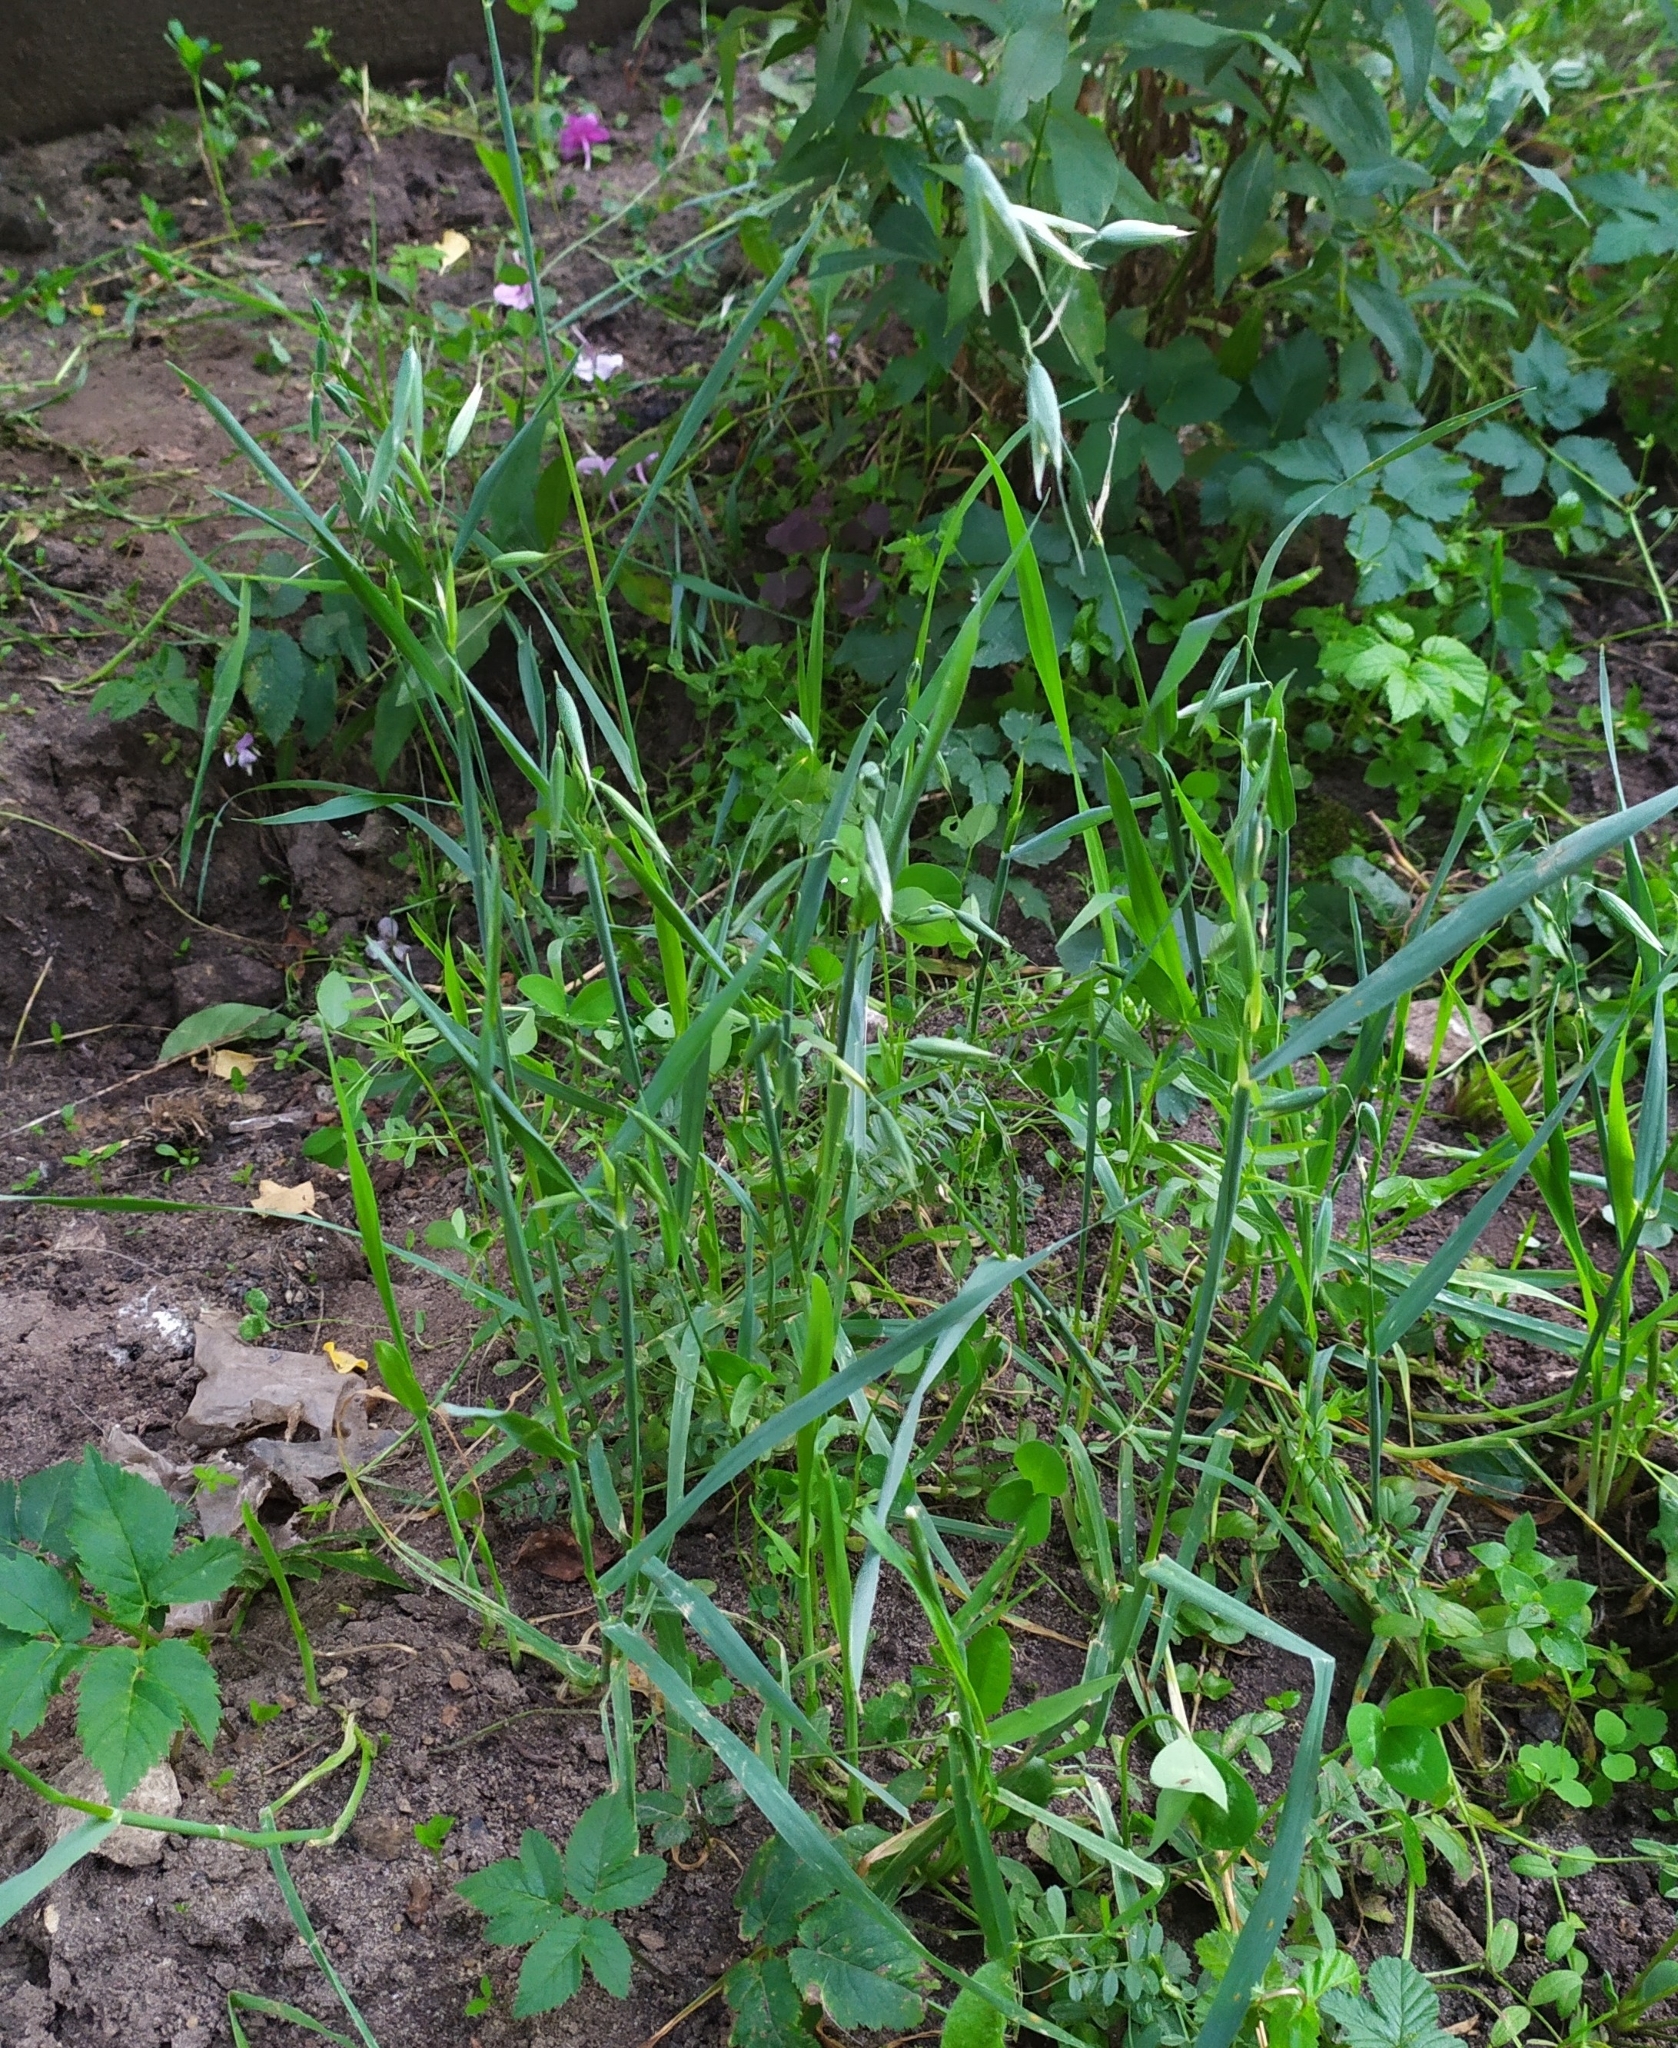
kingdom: Plantae
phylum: Tracheophyta
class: Liliopsida
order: Poales
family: Poaceae
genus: Avena
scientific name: Avena sativa
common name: Oat
